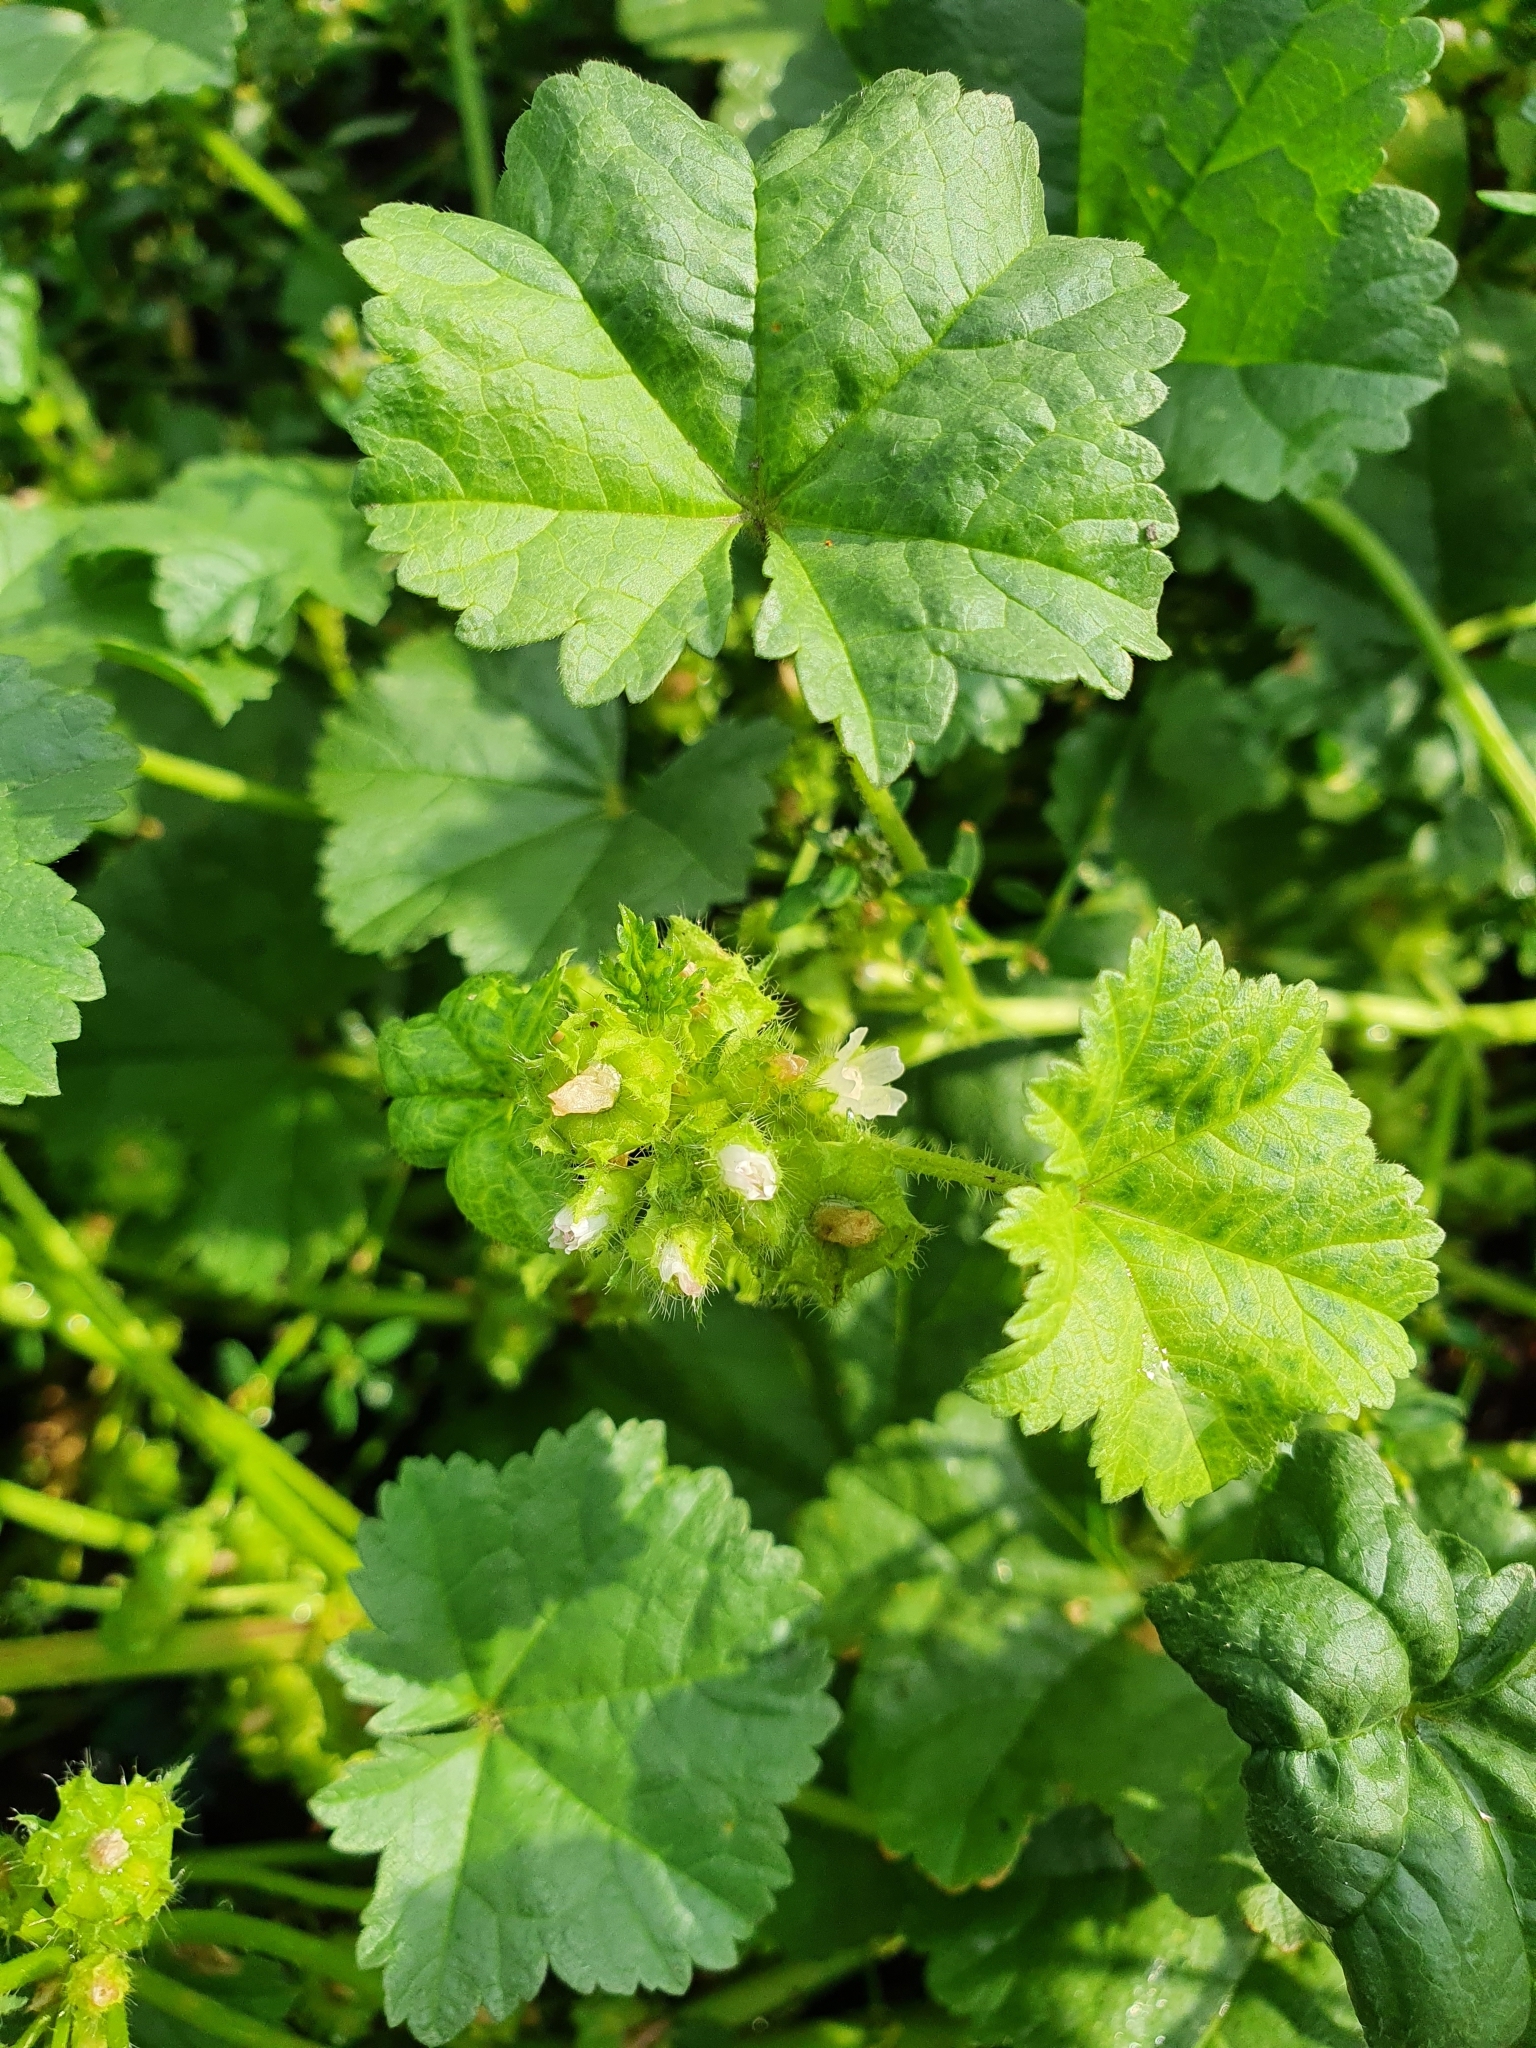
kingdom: Plantae
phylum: Tracheophyta
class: Magnoliopsida
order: Malvales
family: Malvaceae
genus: Malva
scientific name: Malva pusilla
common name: Small mallow
